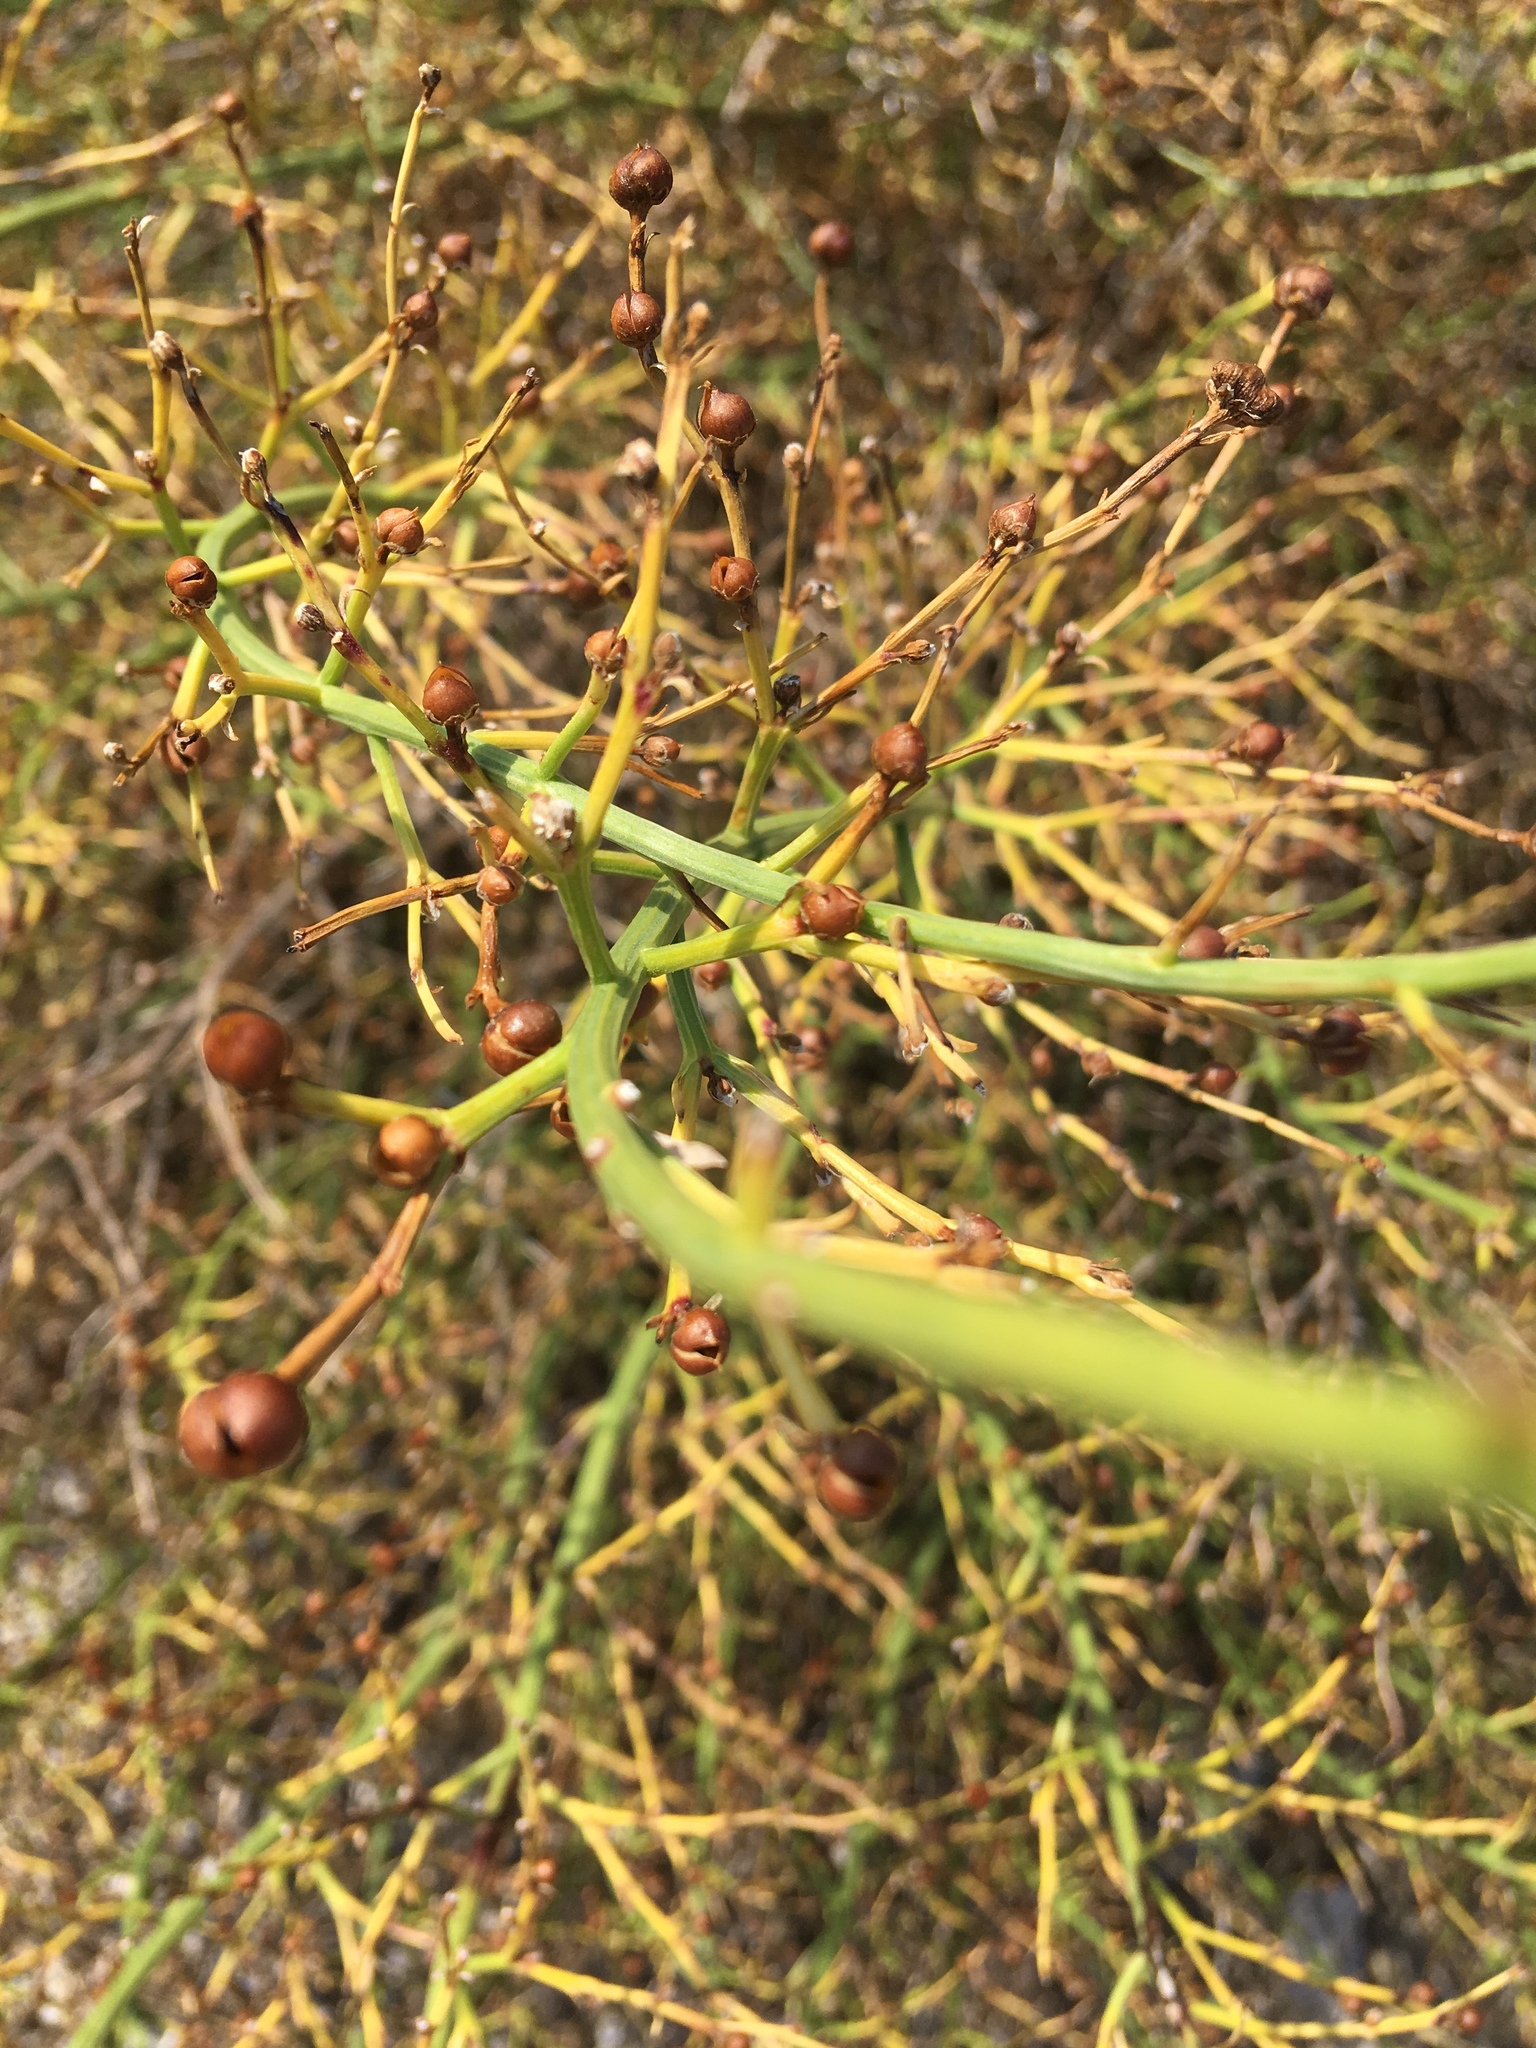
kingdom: Plantae
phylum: Tracheophyta
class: Magnoliopsida
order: Lamiales
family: Scrophulariaceae
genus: Scrophularia
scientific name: Scrophularia canina
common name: French figwort
